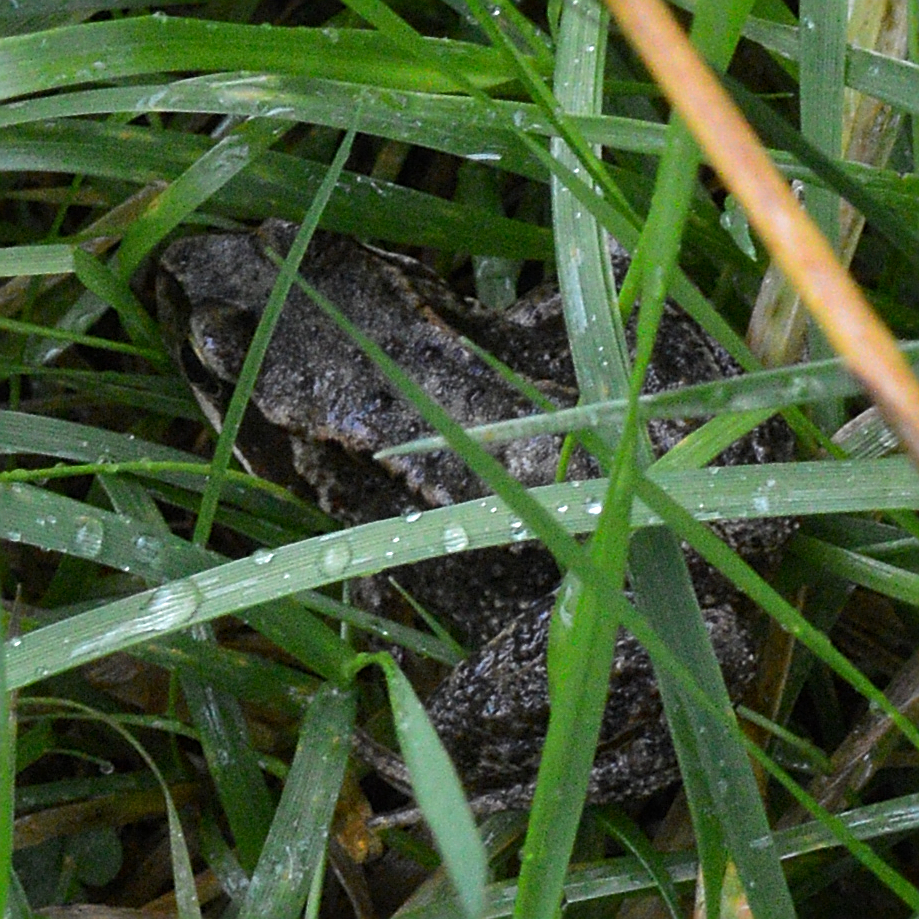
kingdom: Animalia
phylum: Chordata
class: Amphibia
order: Anura
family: Ranidae
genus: Rana
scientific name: Rana temporaria
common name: Common frog
